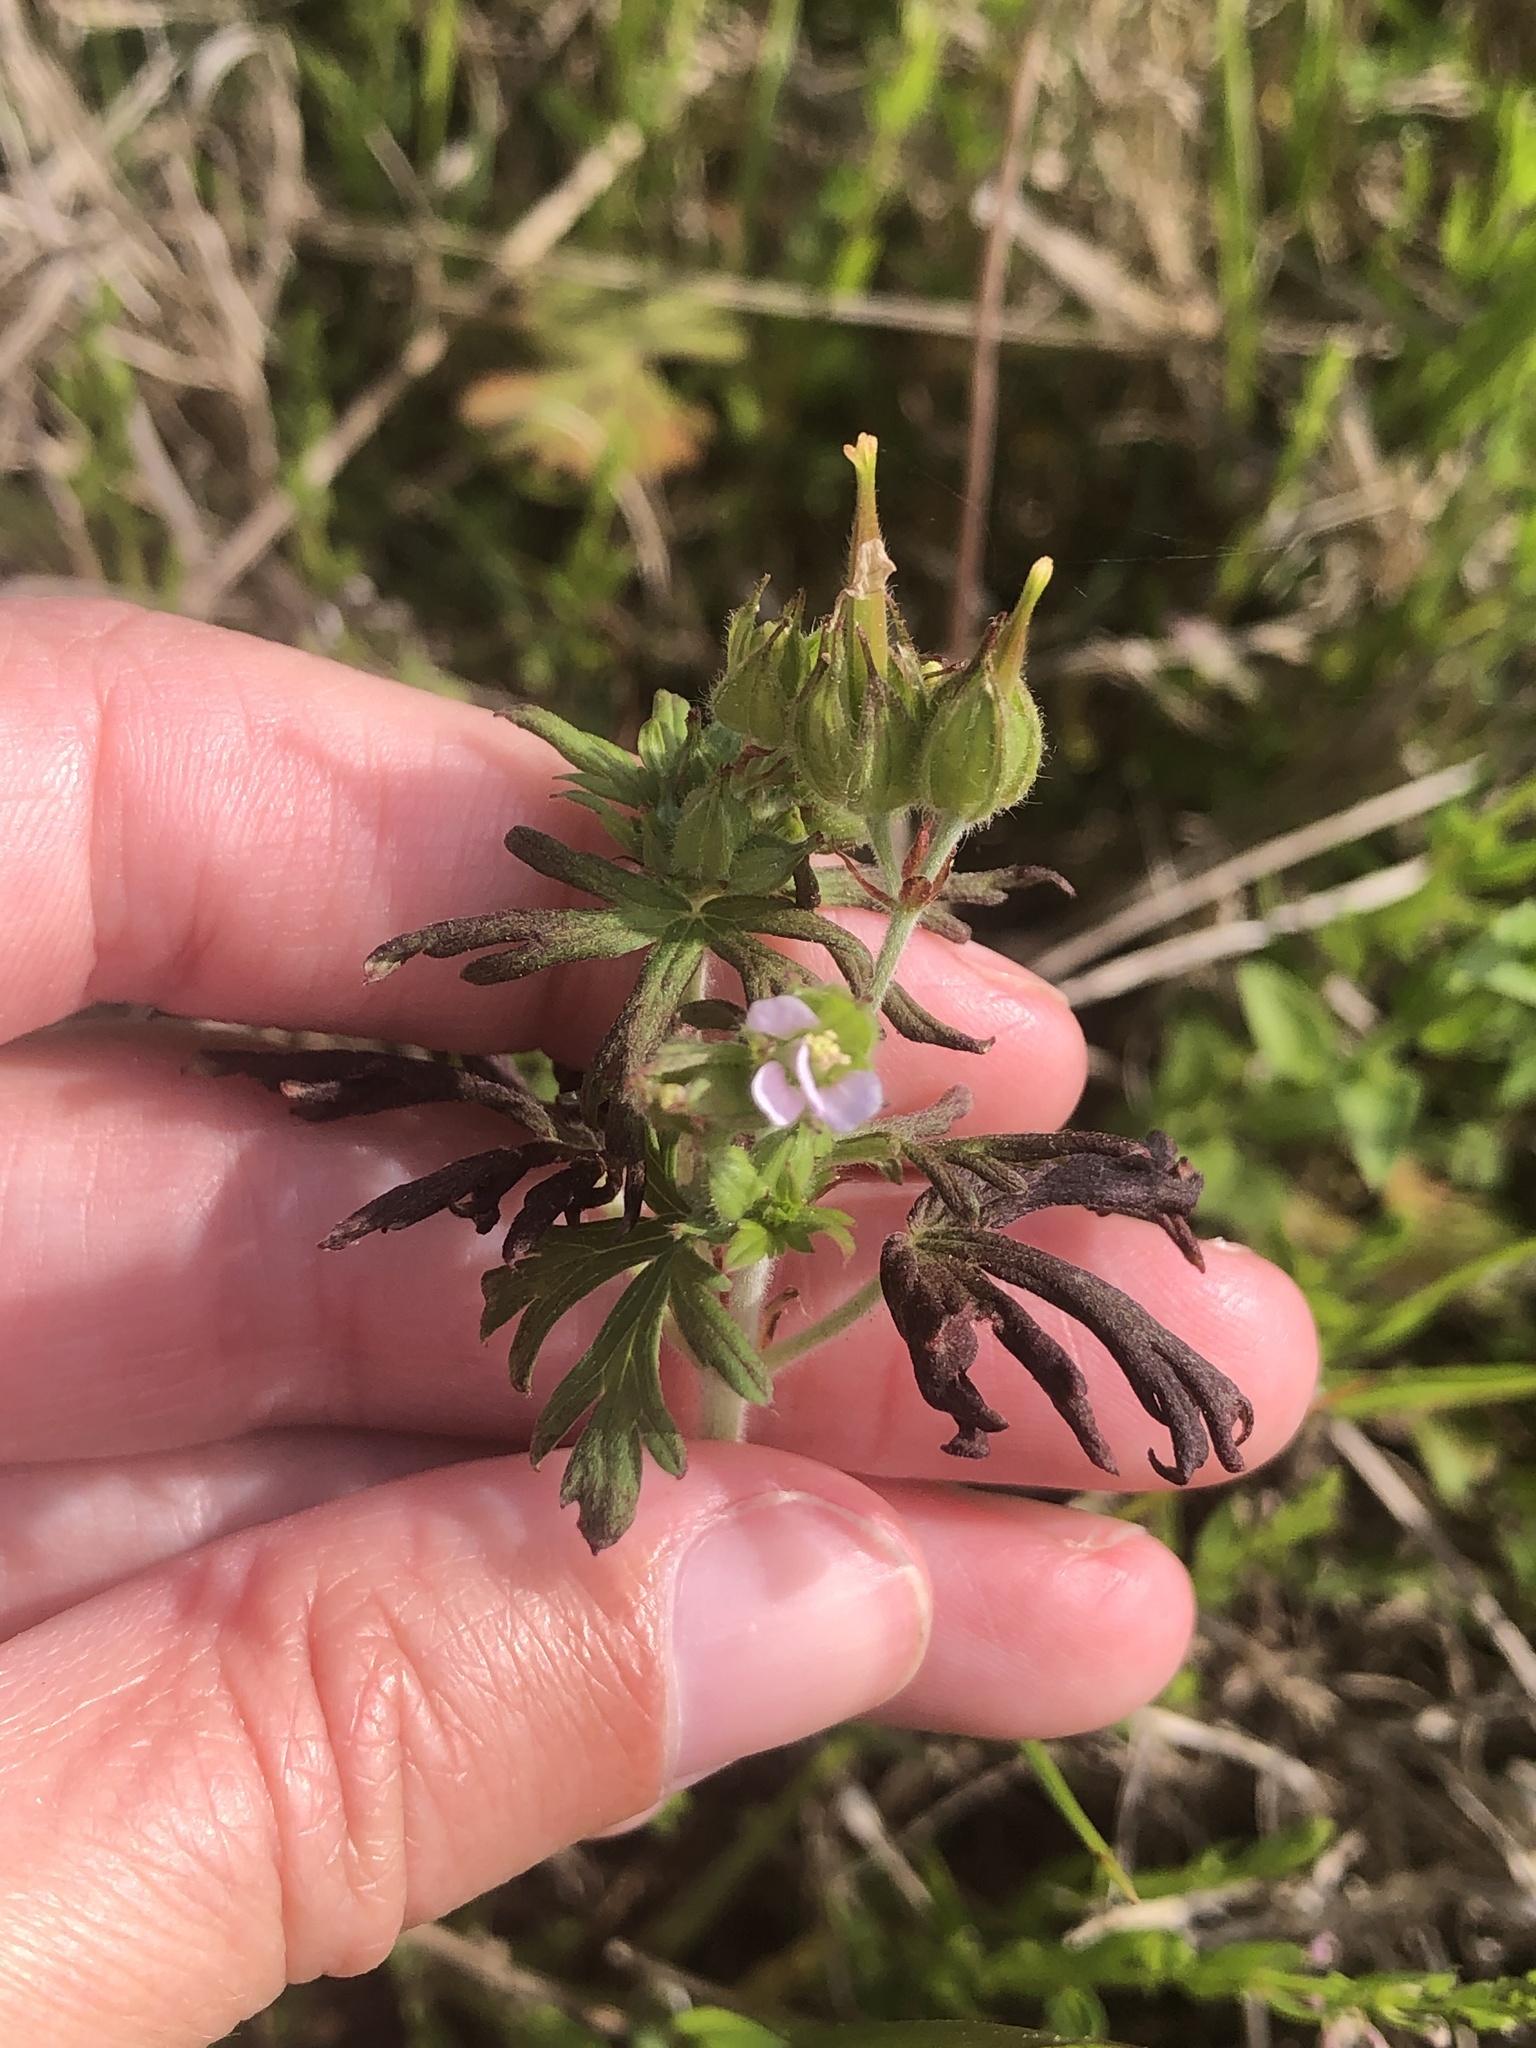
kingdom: Plantae
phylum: Tracheophyta
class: Magnoliopsida
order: Geraniales
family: Geraniaceae
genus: Geranium
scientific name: Geranium carolinianum
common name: Carolina crane's-bill
